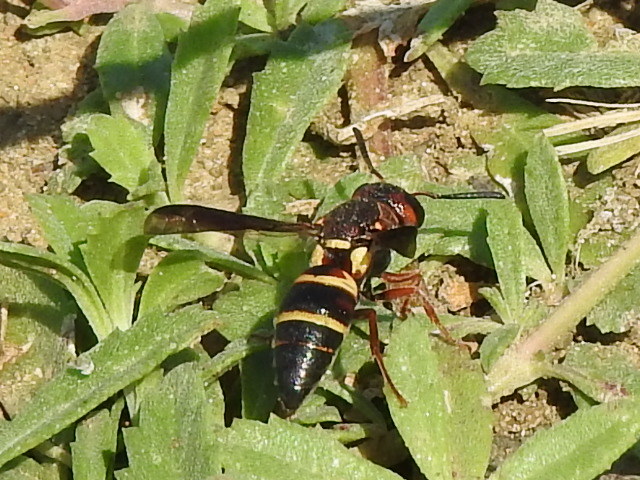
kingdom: Animalia
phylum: Arthropoda
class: Insecta
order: Hymenoptera
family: Eumenidae
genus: Euodynerus
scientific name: Euodynerus annulatus
